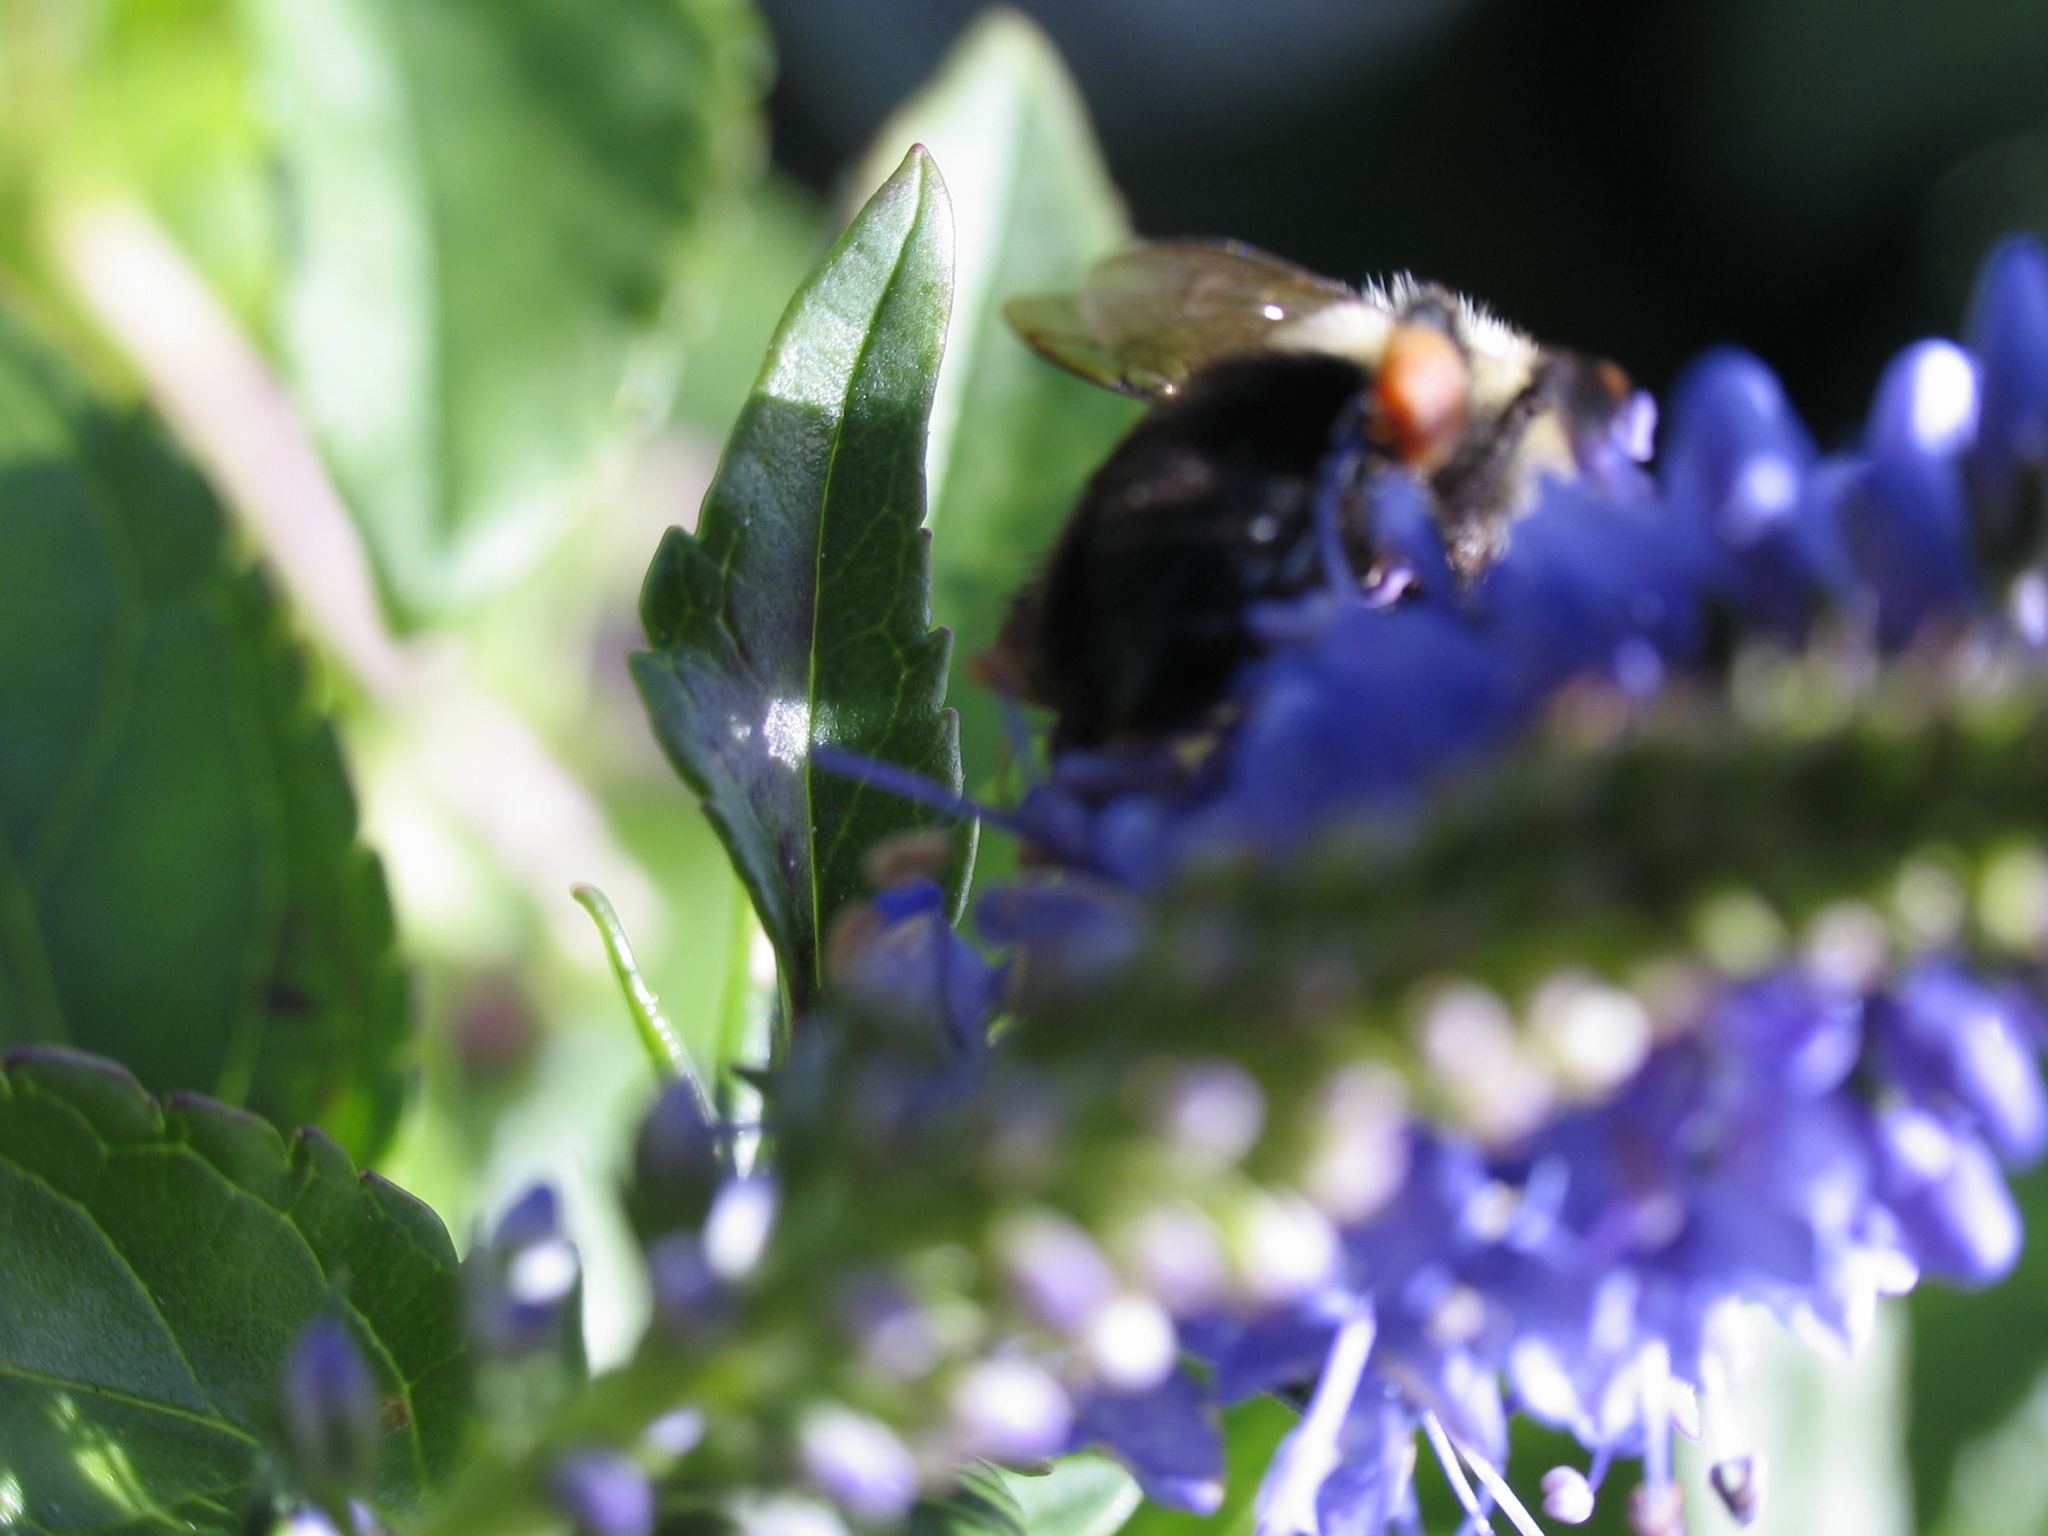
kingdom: Animalia
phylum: Arthropoda
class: Insecta
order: Hymenoptera
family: Apidae
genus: Bombus
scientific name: Bombus impatiens
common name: Common eastern bumble bee
